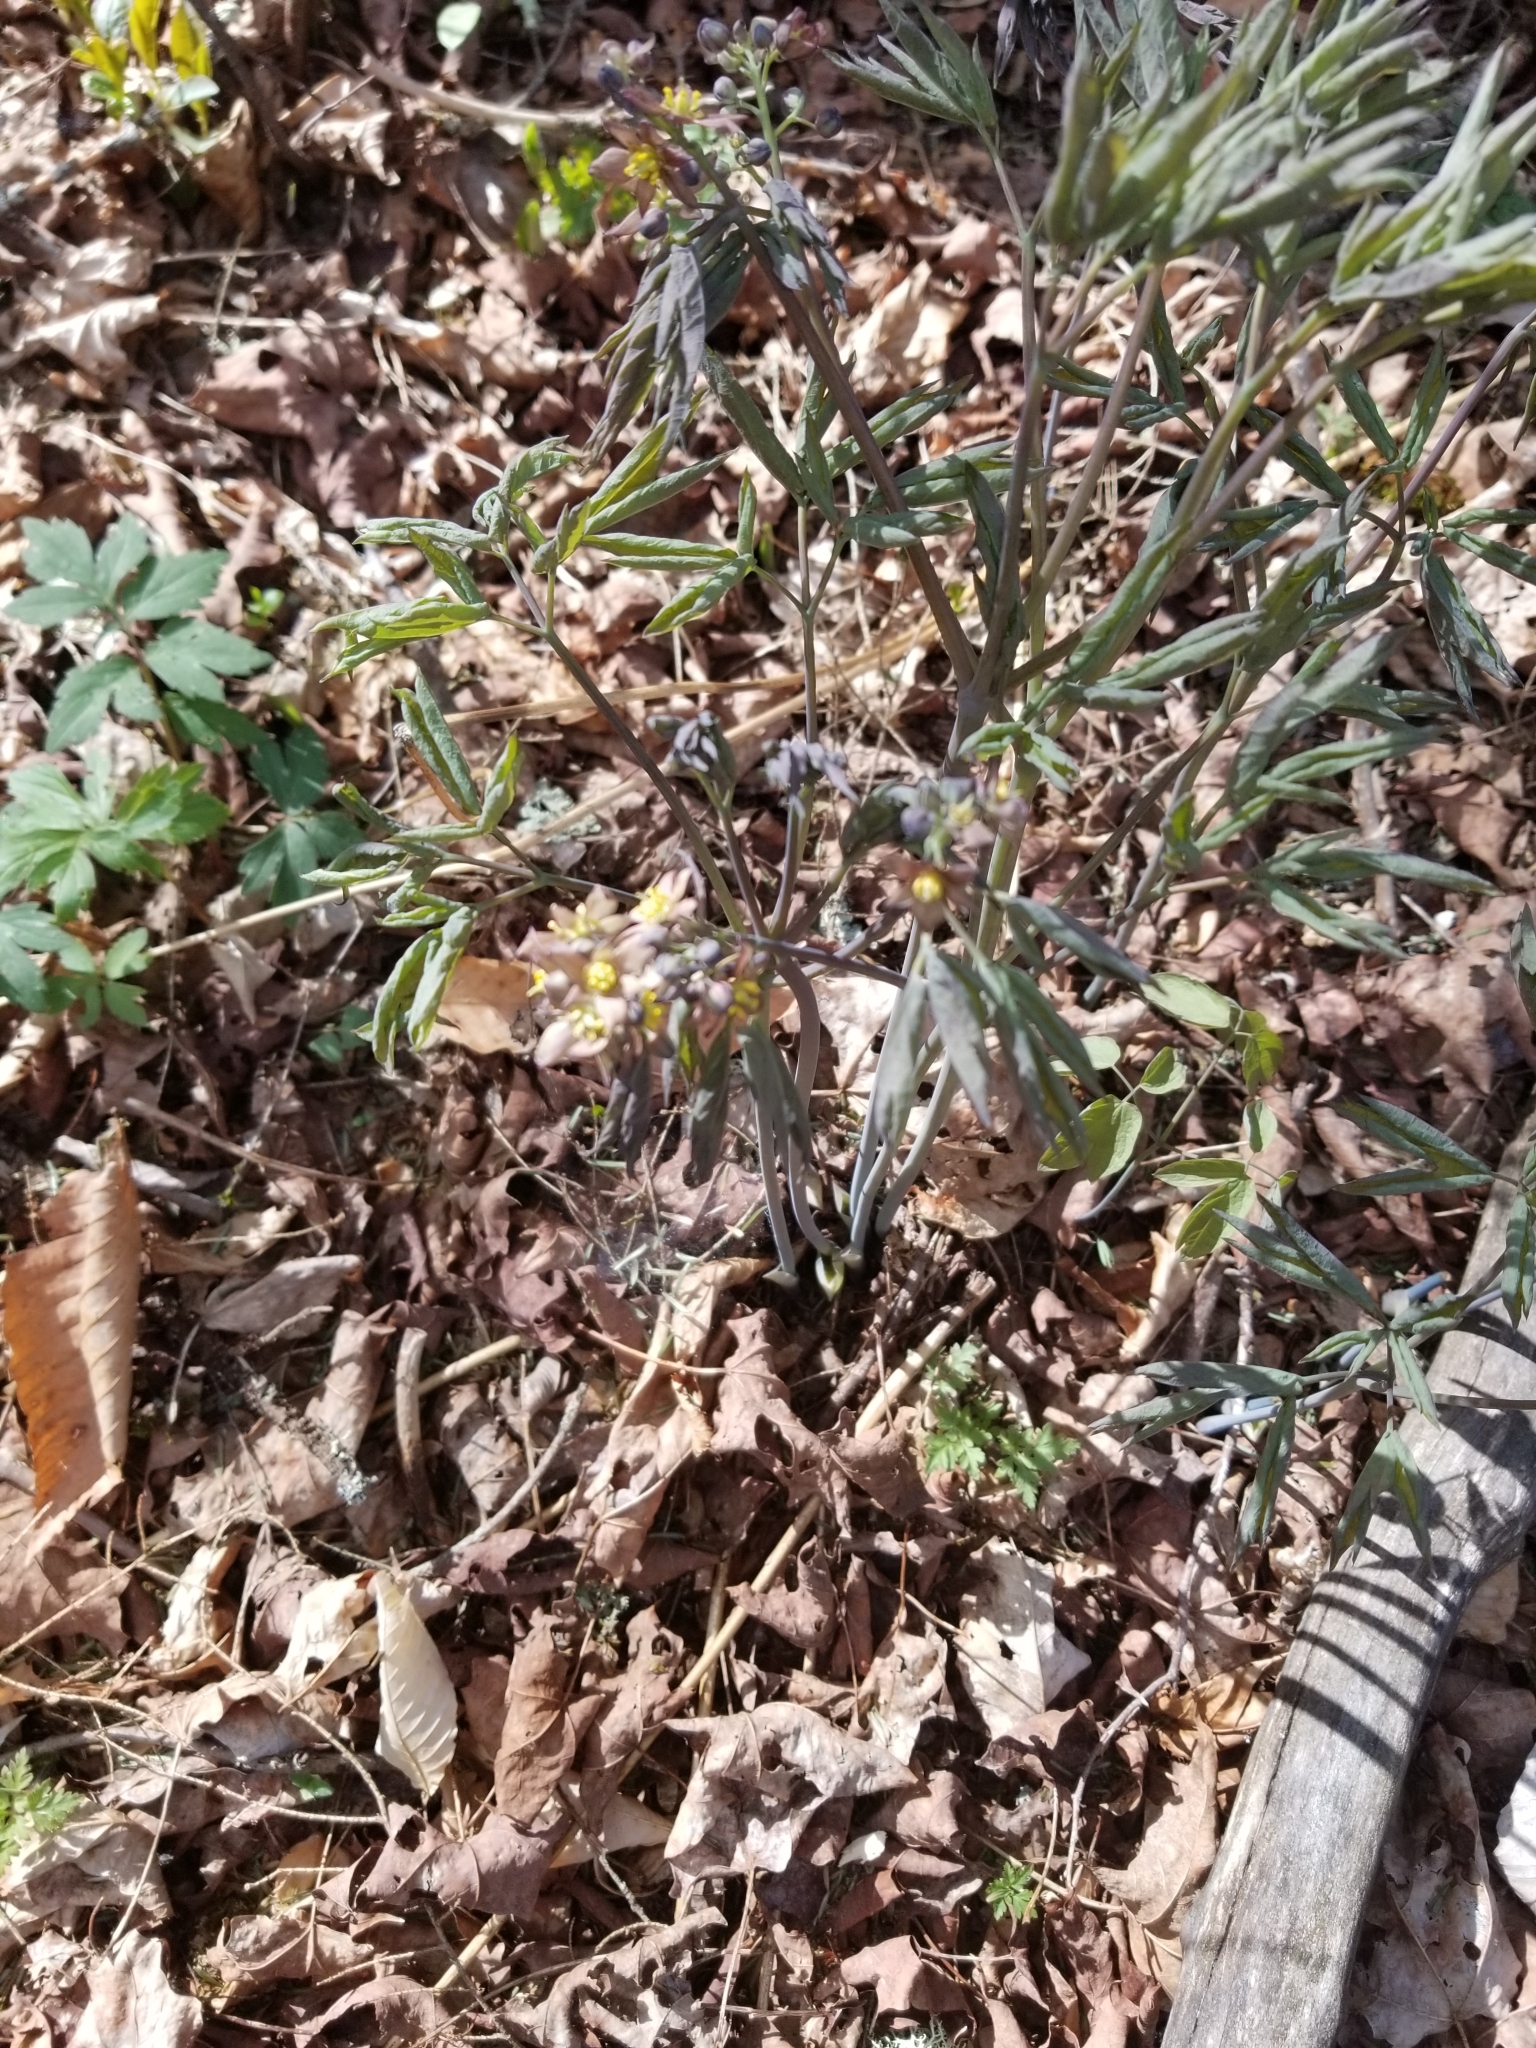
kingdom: Plantae
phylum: Tracheophyta
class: Magnoliopsida
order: Ranunculales
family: Berberidaceae
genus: Caulophyllum
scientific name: Caulophyllum giganteum
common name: Blue cohosh
